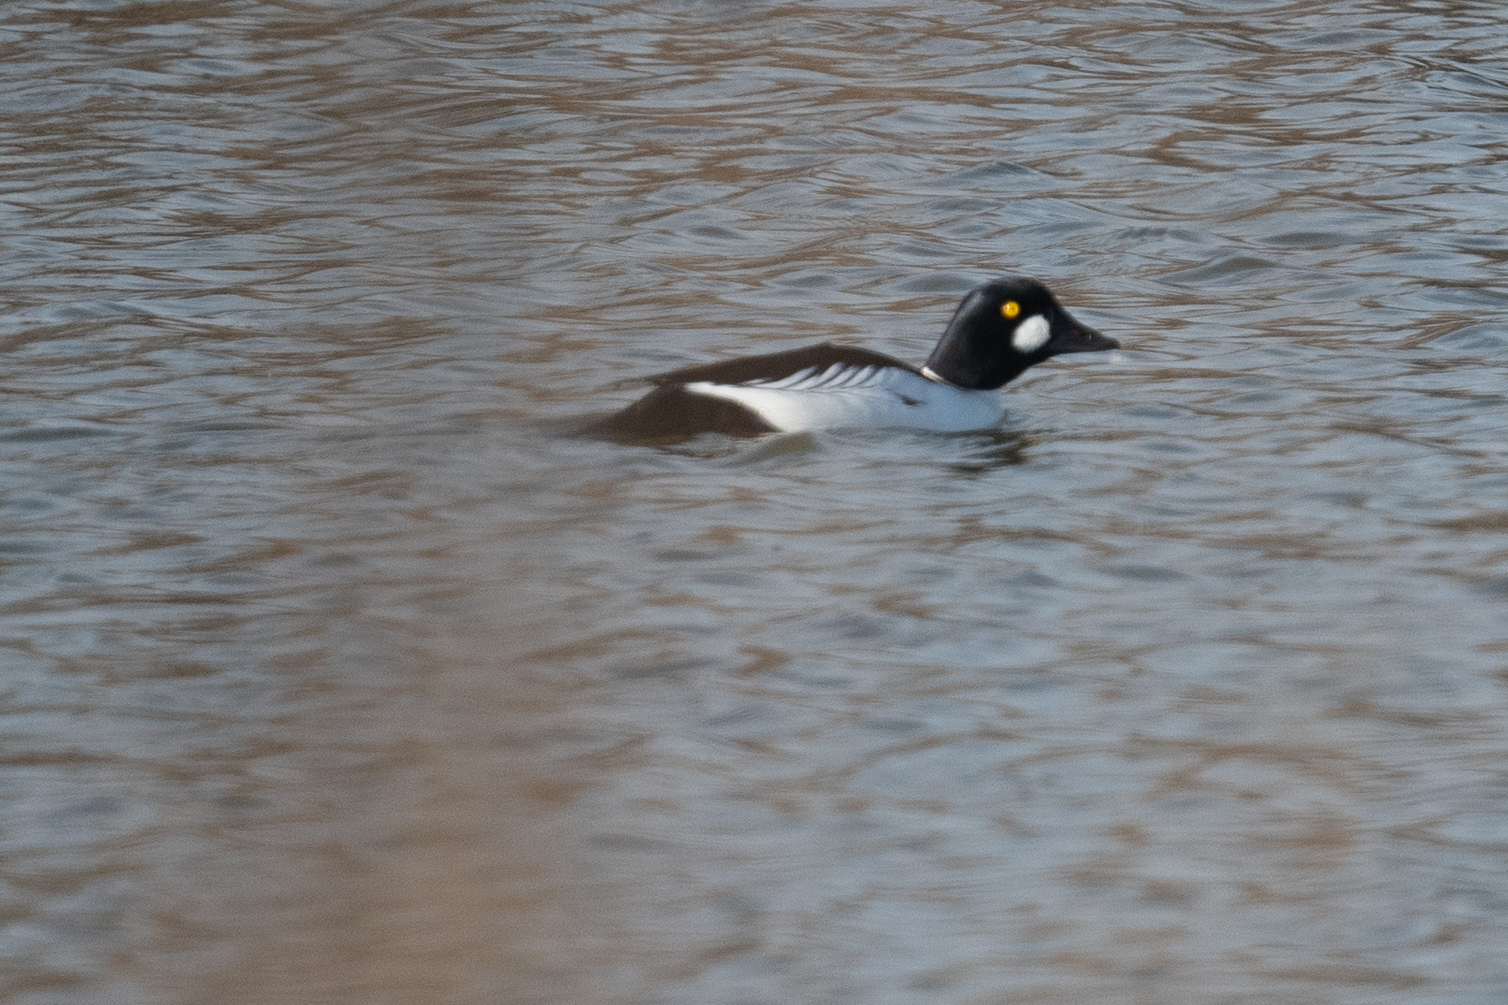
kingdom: Animalia
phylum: Chordata
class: Aves
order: Anseriformes
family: Anatidae
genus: Bucephala
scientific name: Bucephala clangula
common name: Common goldeneye
